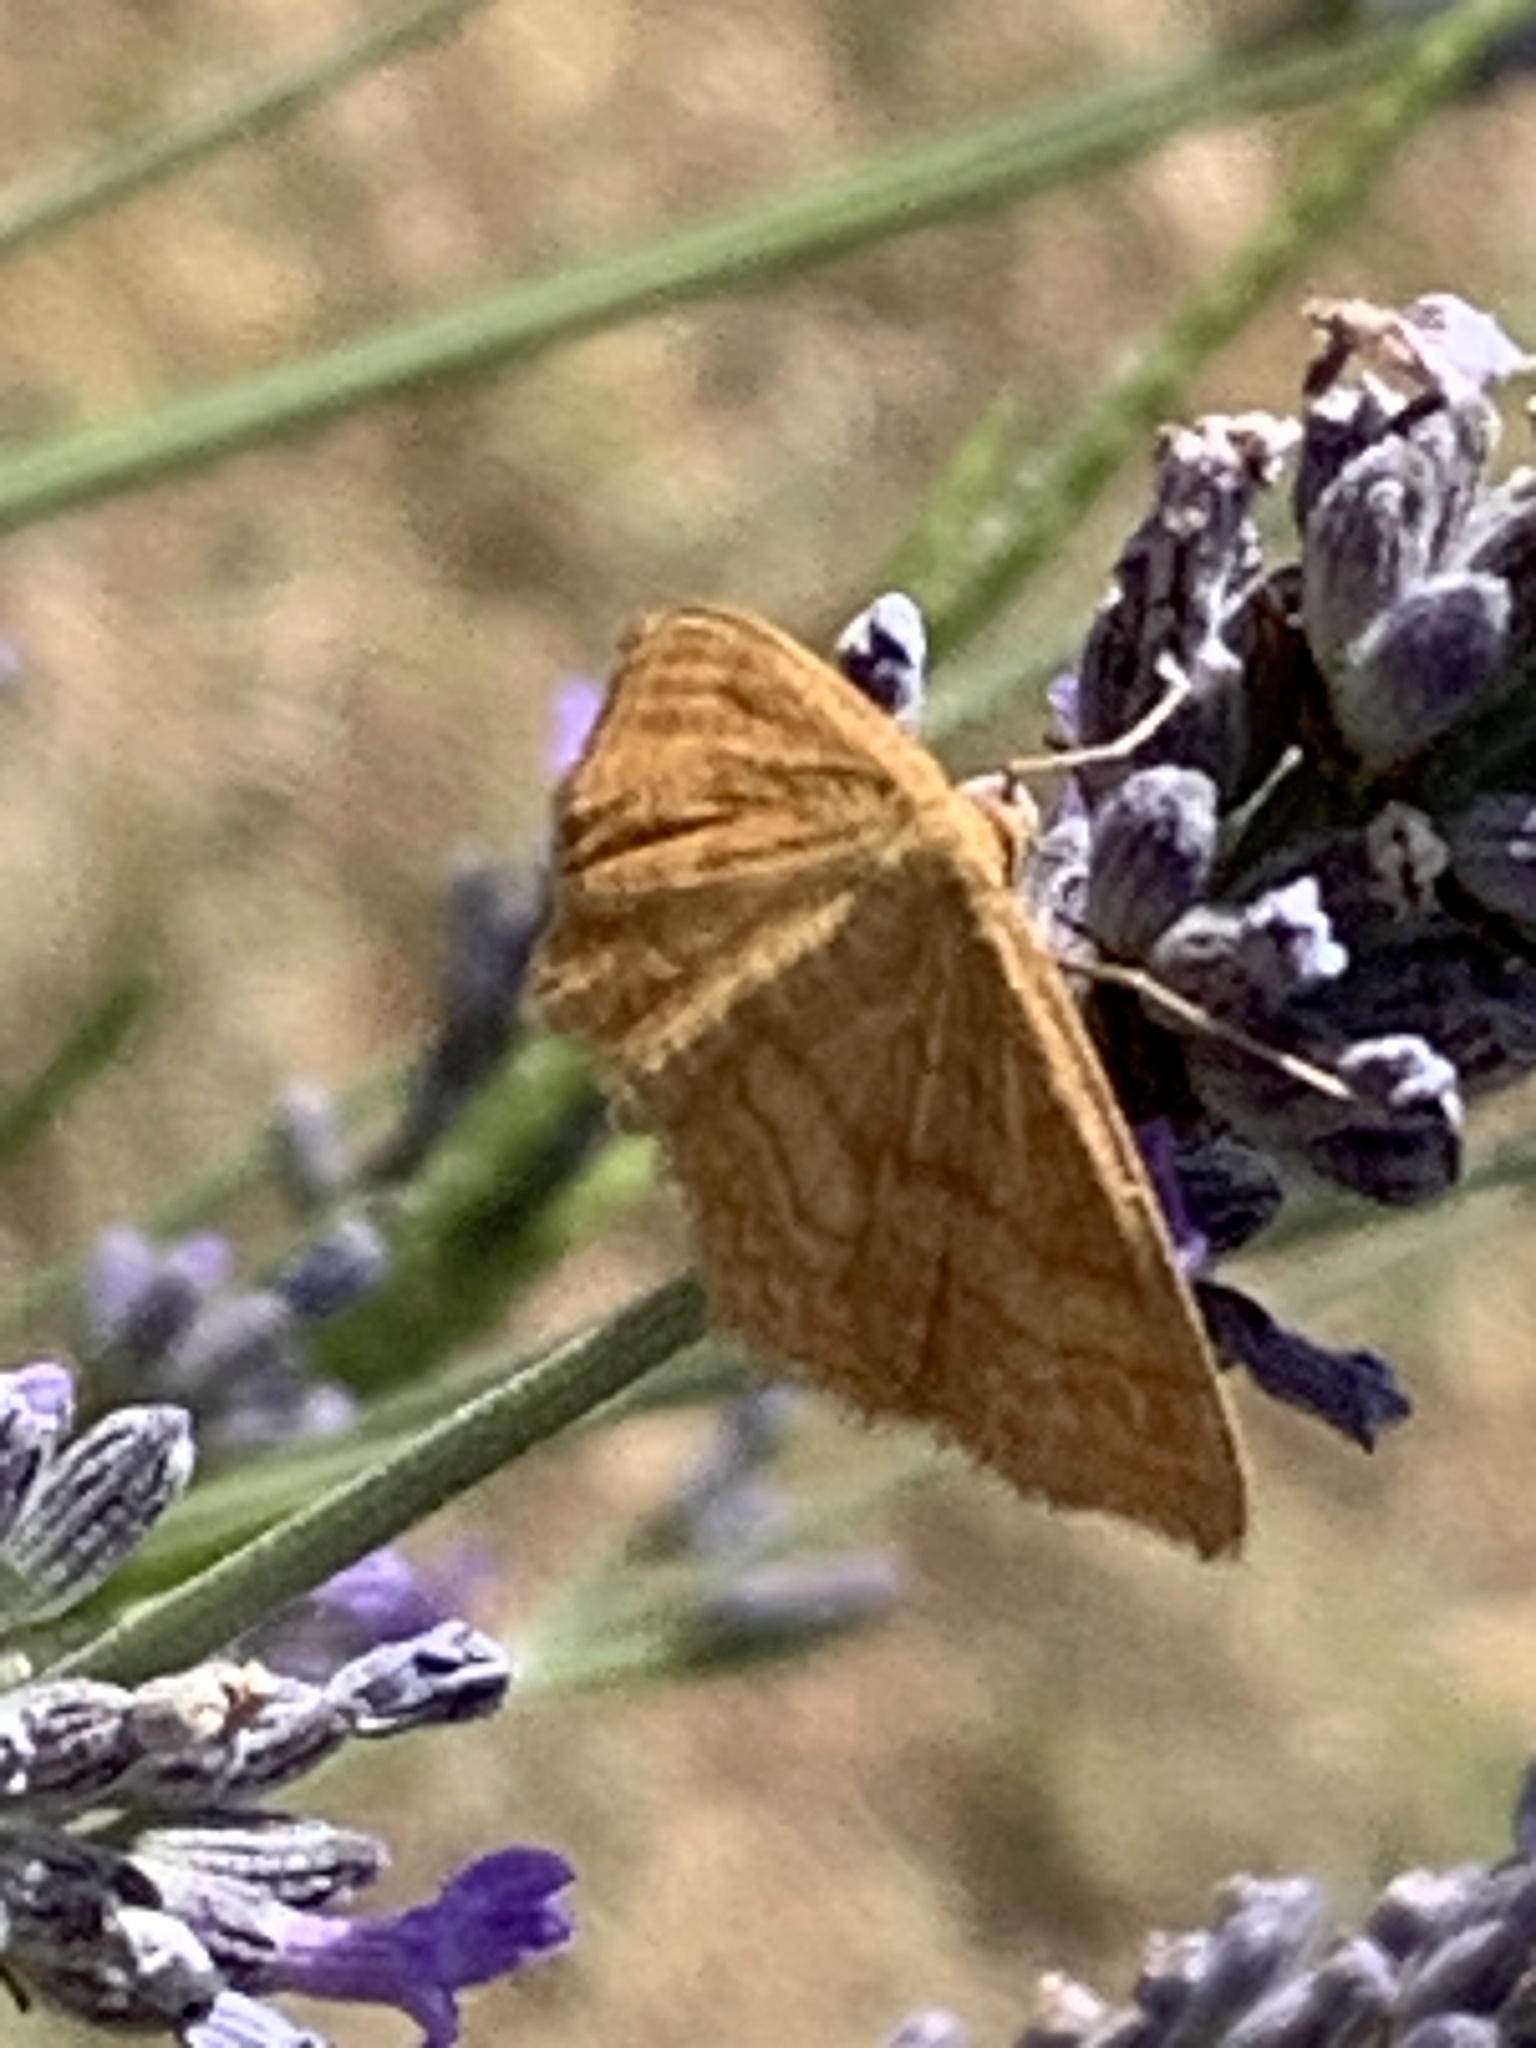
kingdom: Animalia
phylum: Arthropoda
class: Insecta
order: Lepidoptera
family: Geometridae
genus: Idaea
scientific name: Idaea ochrata
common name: Bright wave
